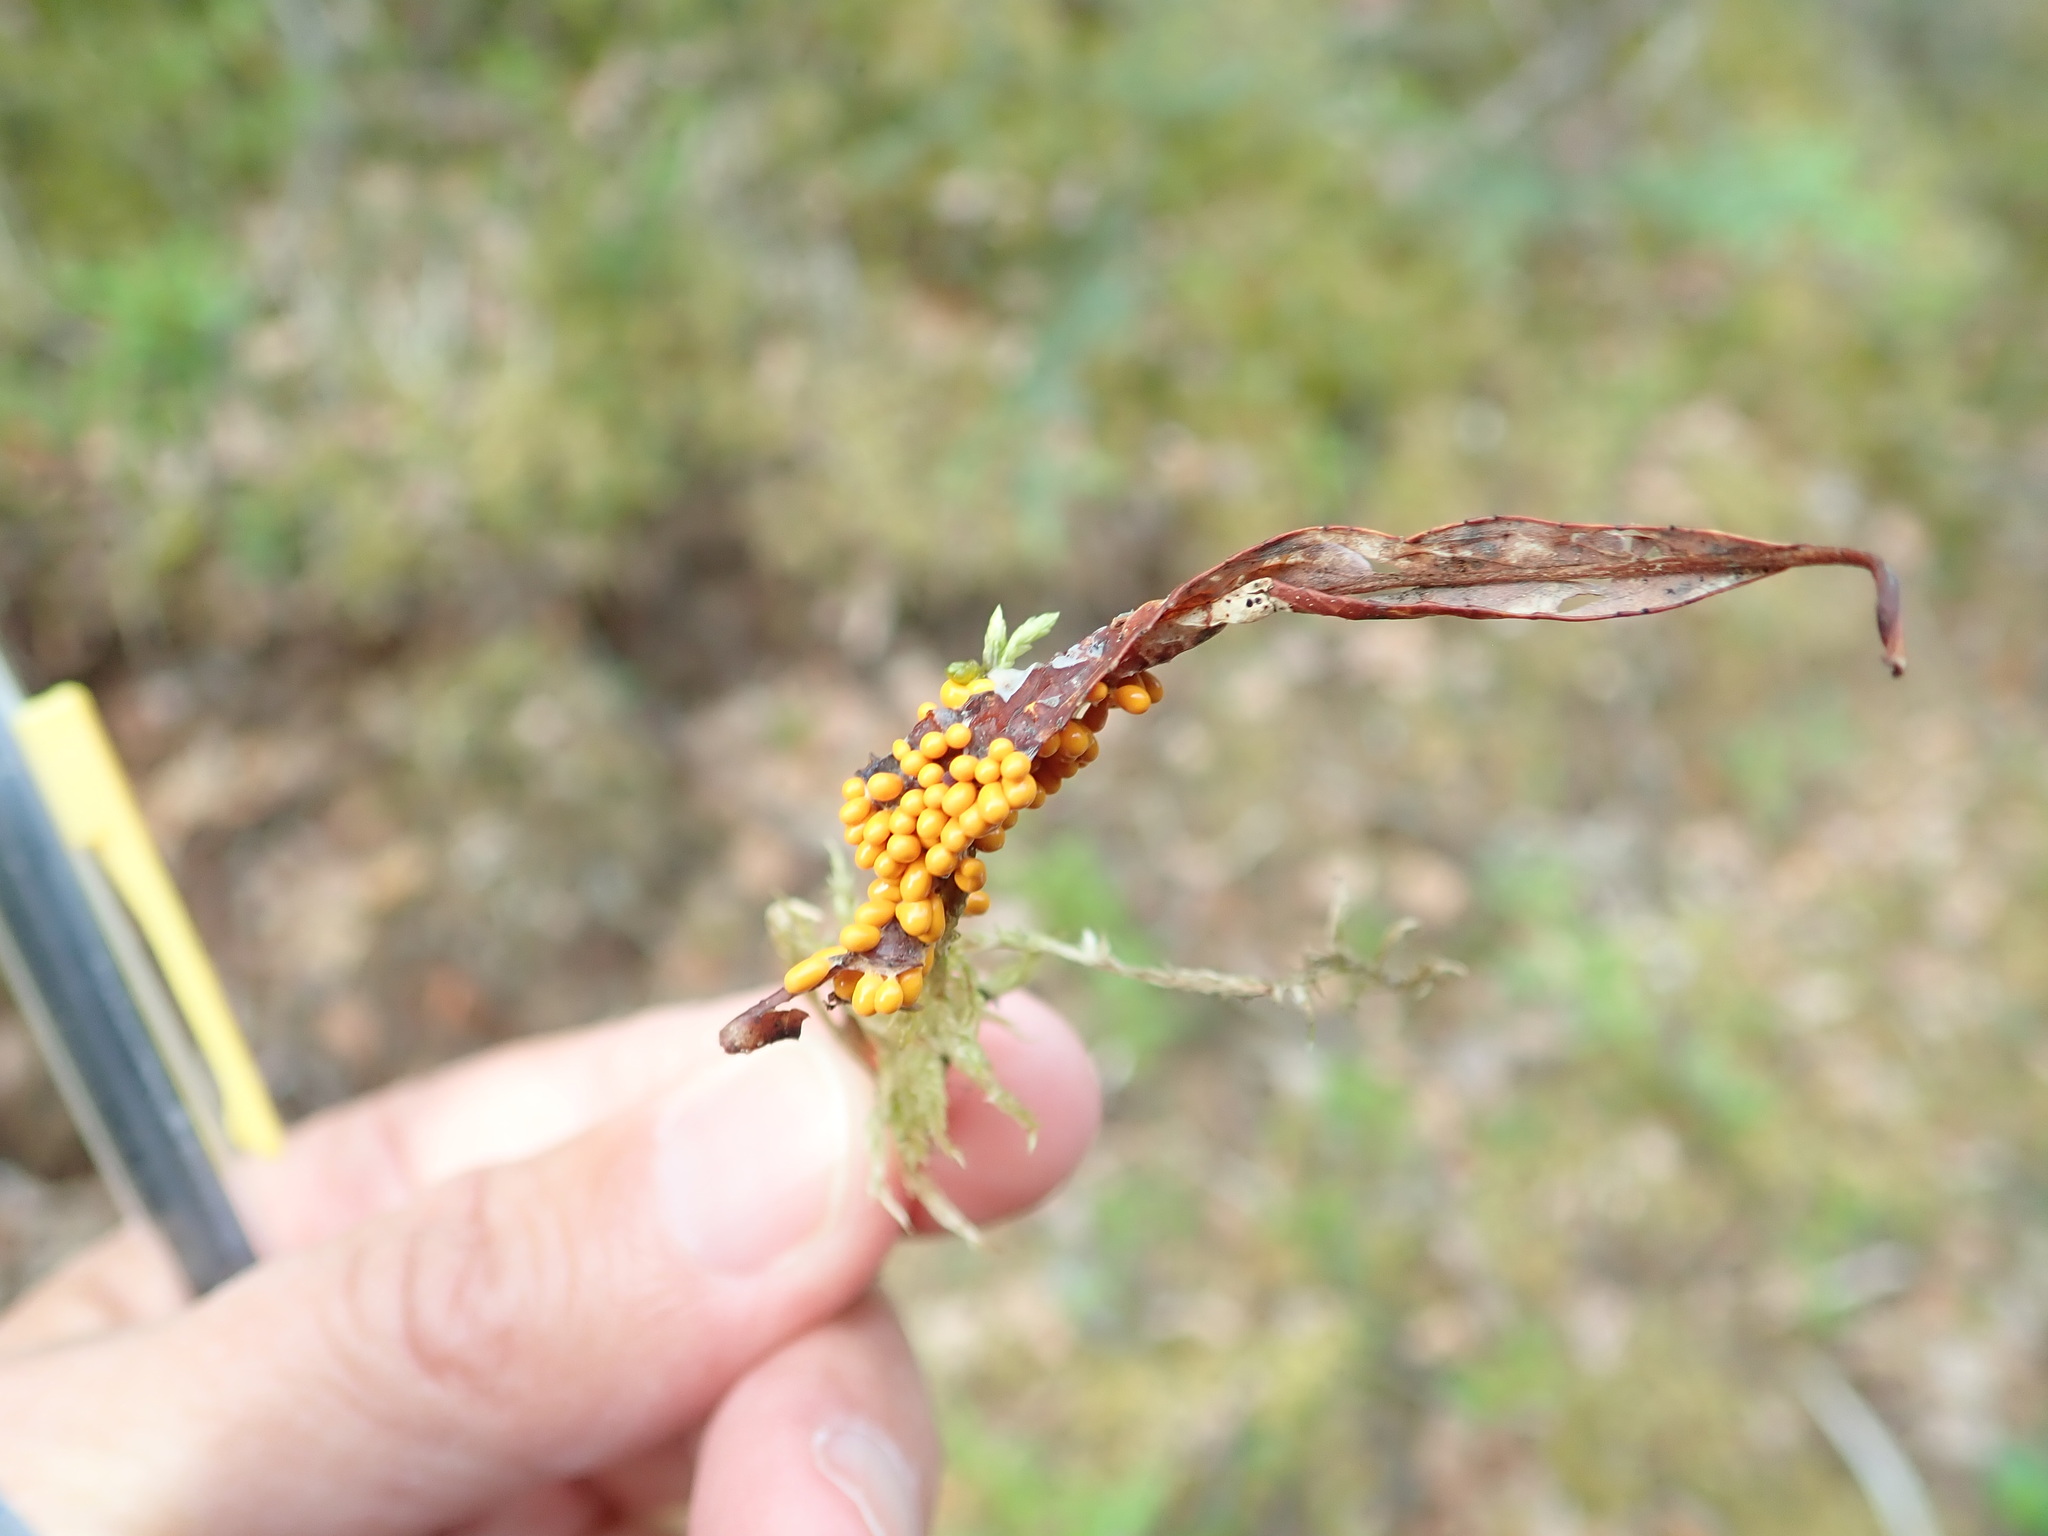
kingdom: Protozoa
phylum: Mycetozoa
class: Myxomycetes
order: Physarales
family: Physaraceae
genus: Leocarpus
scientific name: Leocarpus fragilis
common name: Insect-egg slime
